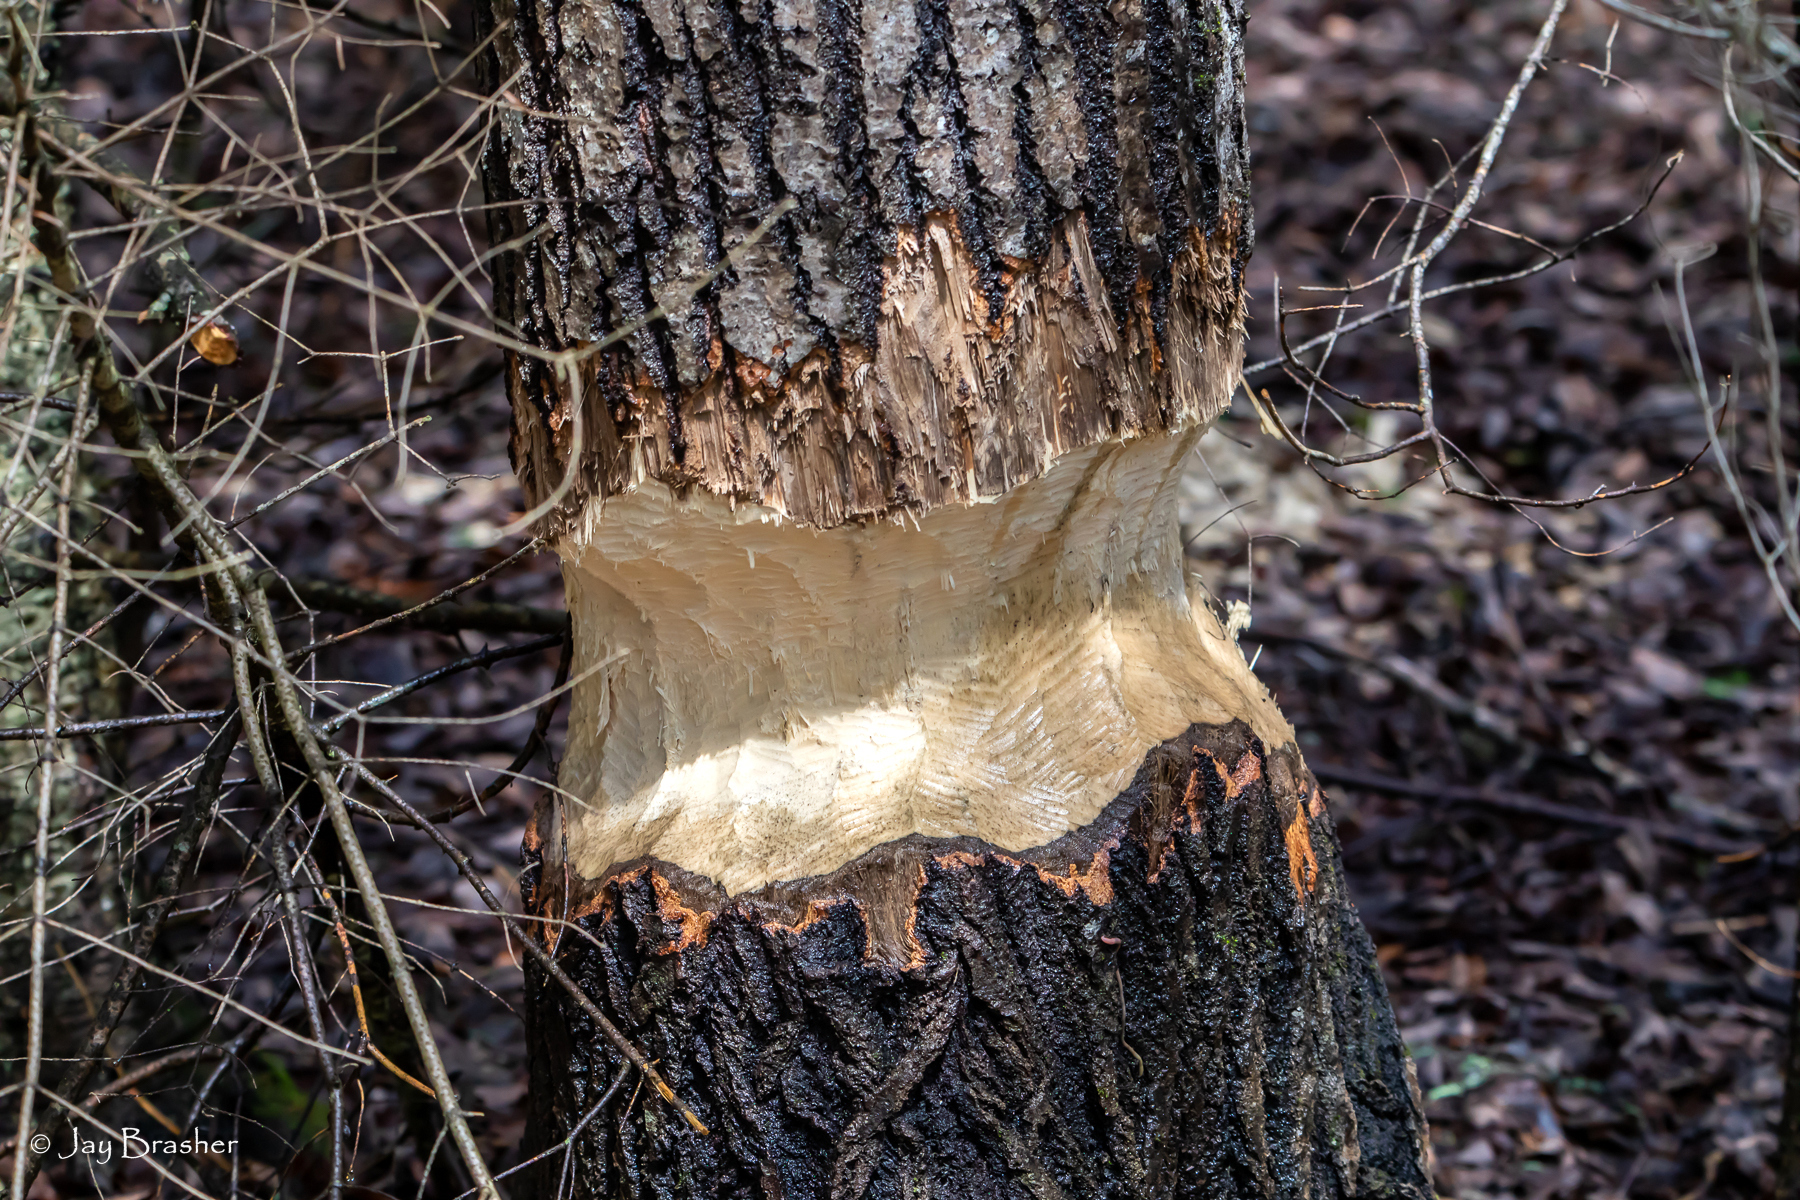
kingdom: Animalia
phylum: Chordata
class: Mammalia
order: Rodentia
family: Castoridae
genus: Castor
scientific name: Castor canadensis
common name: American beaver
